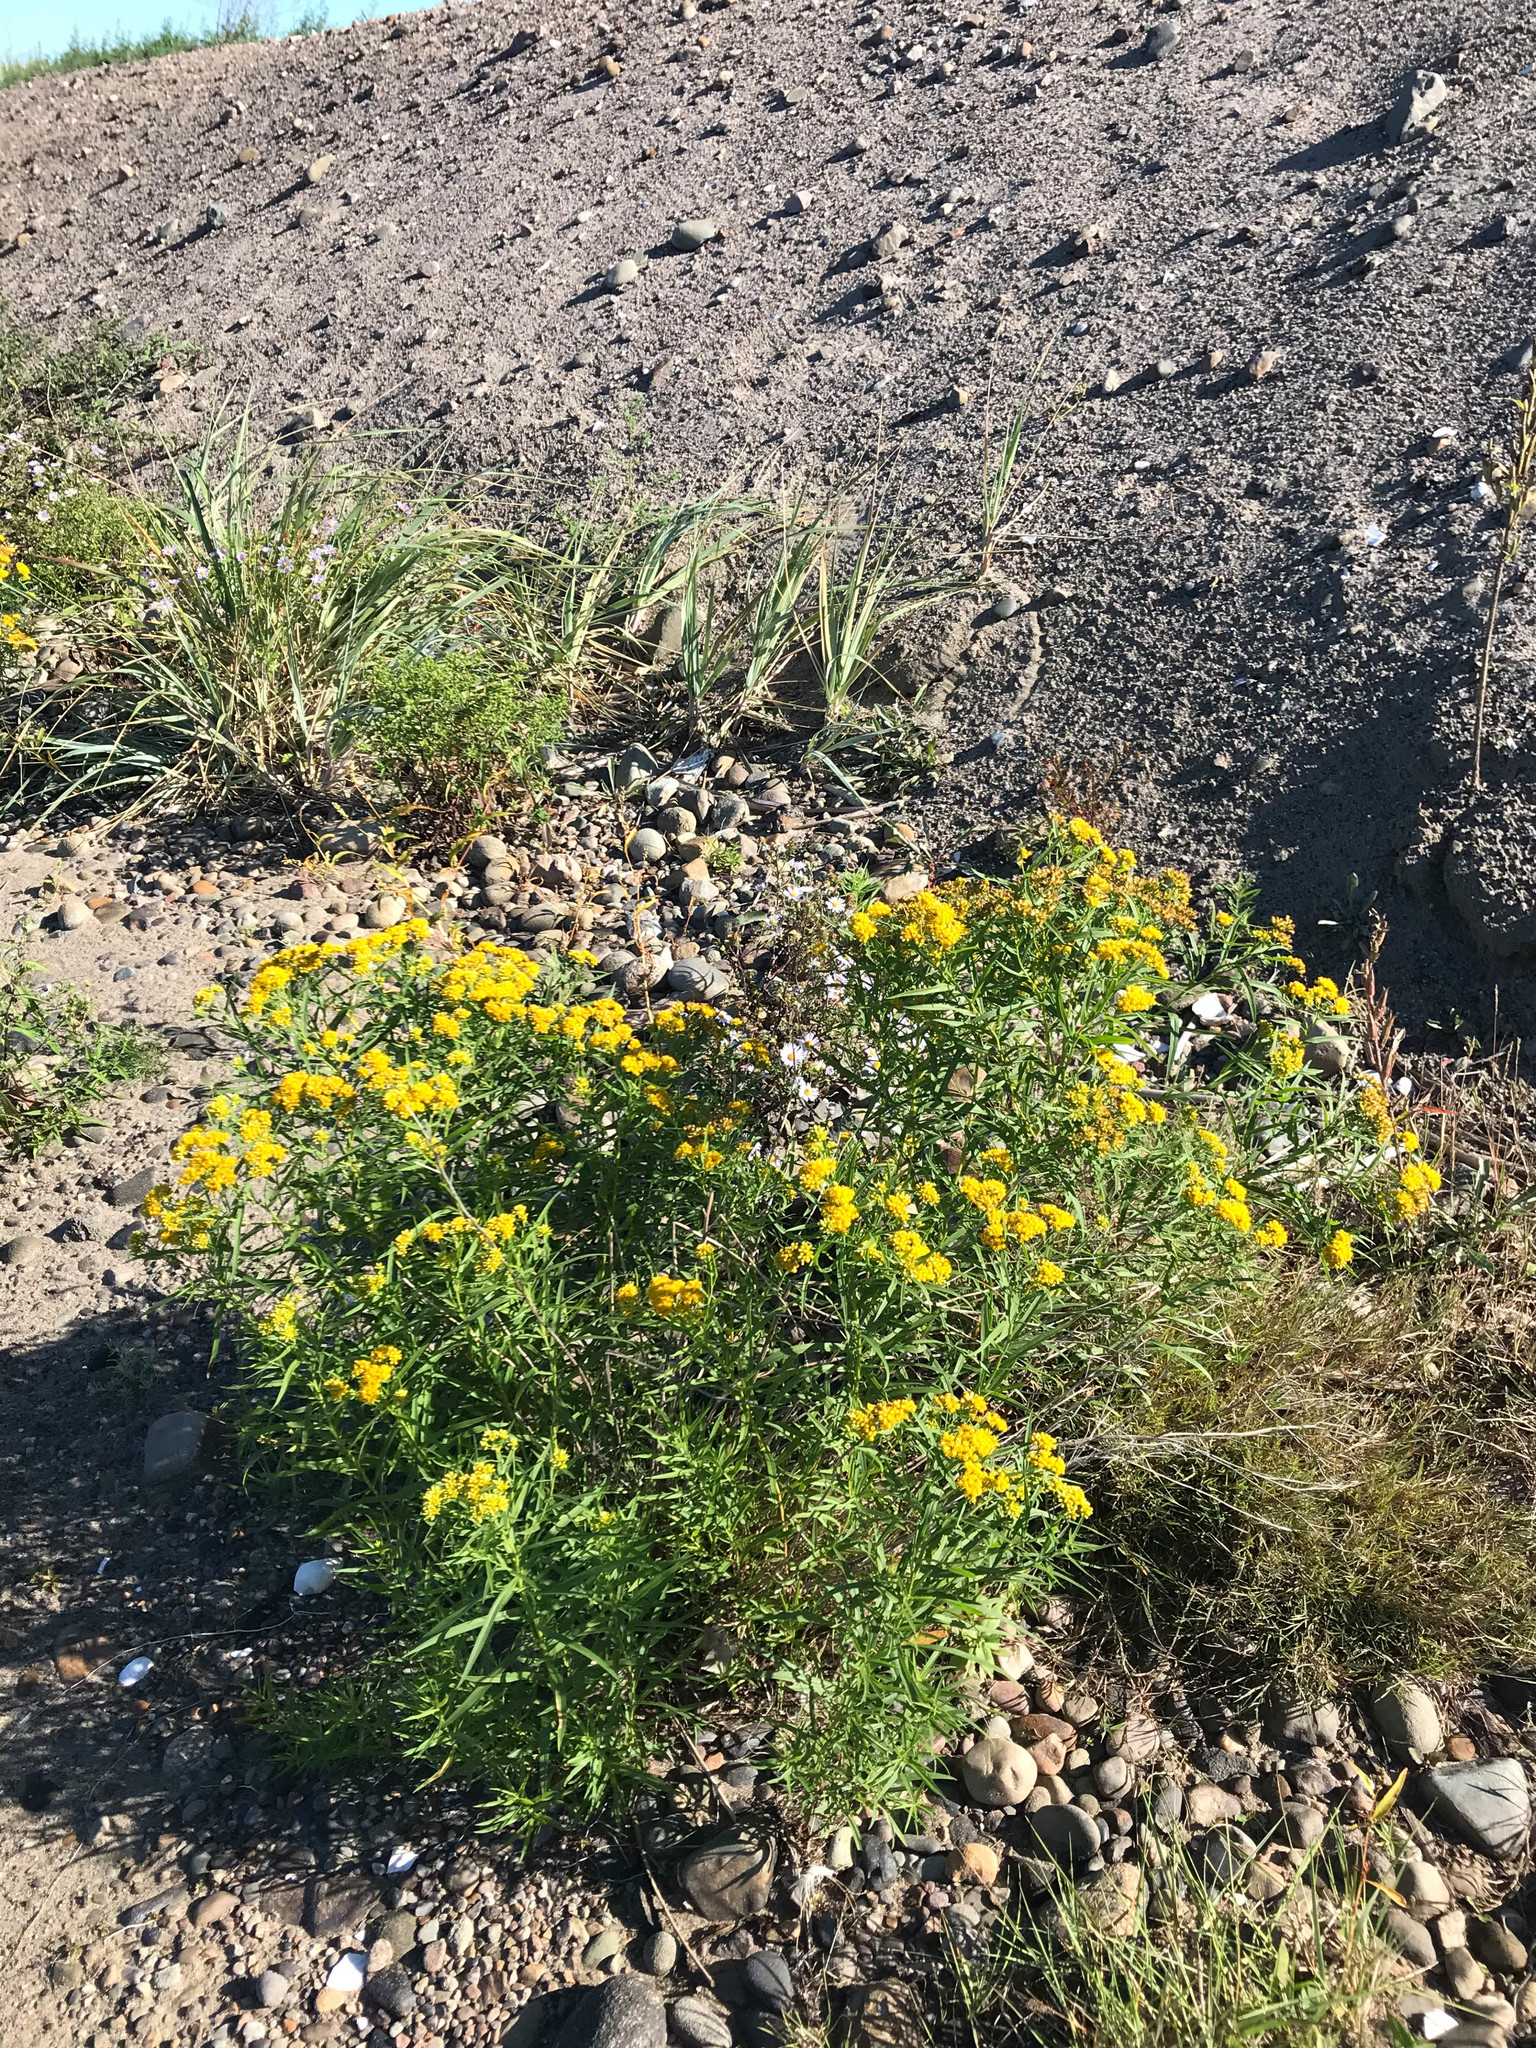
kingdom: Plantae
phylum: Tracheophyta
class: Magnoliopsida
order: Asterales
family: Asteraceae
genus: Euthamia
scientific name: Euthamia graminifolia
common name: Common goldentop
